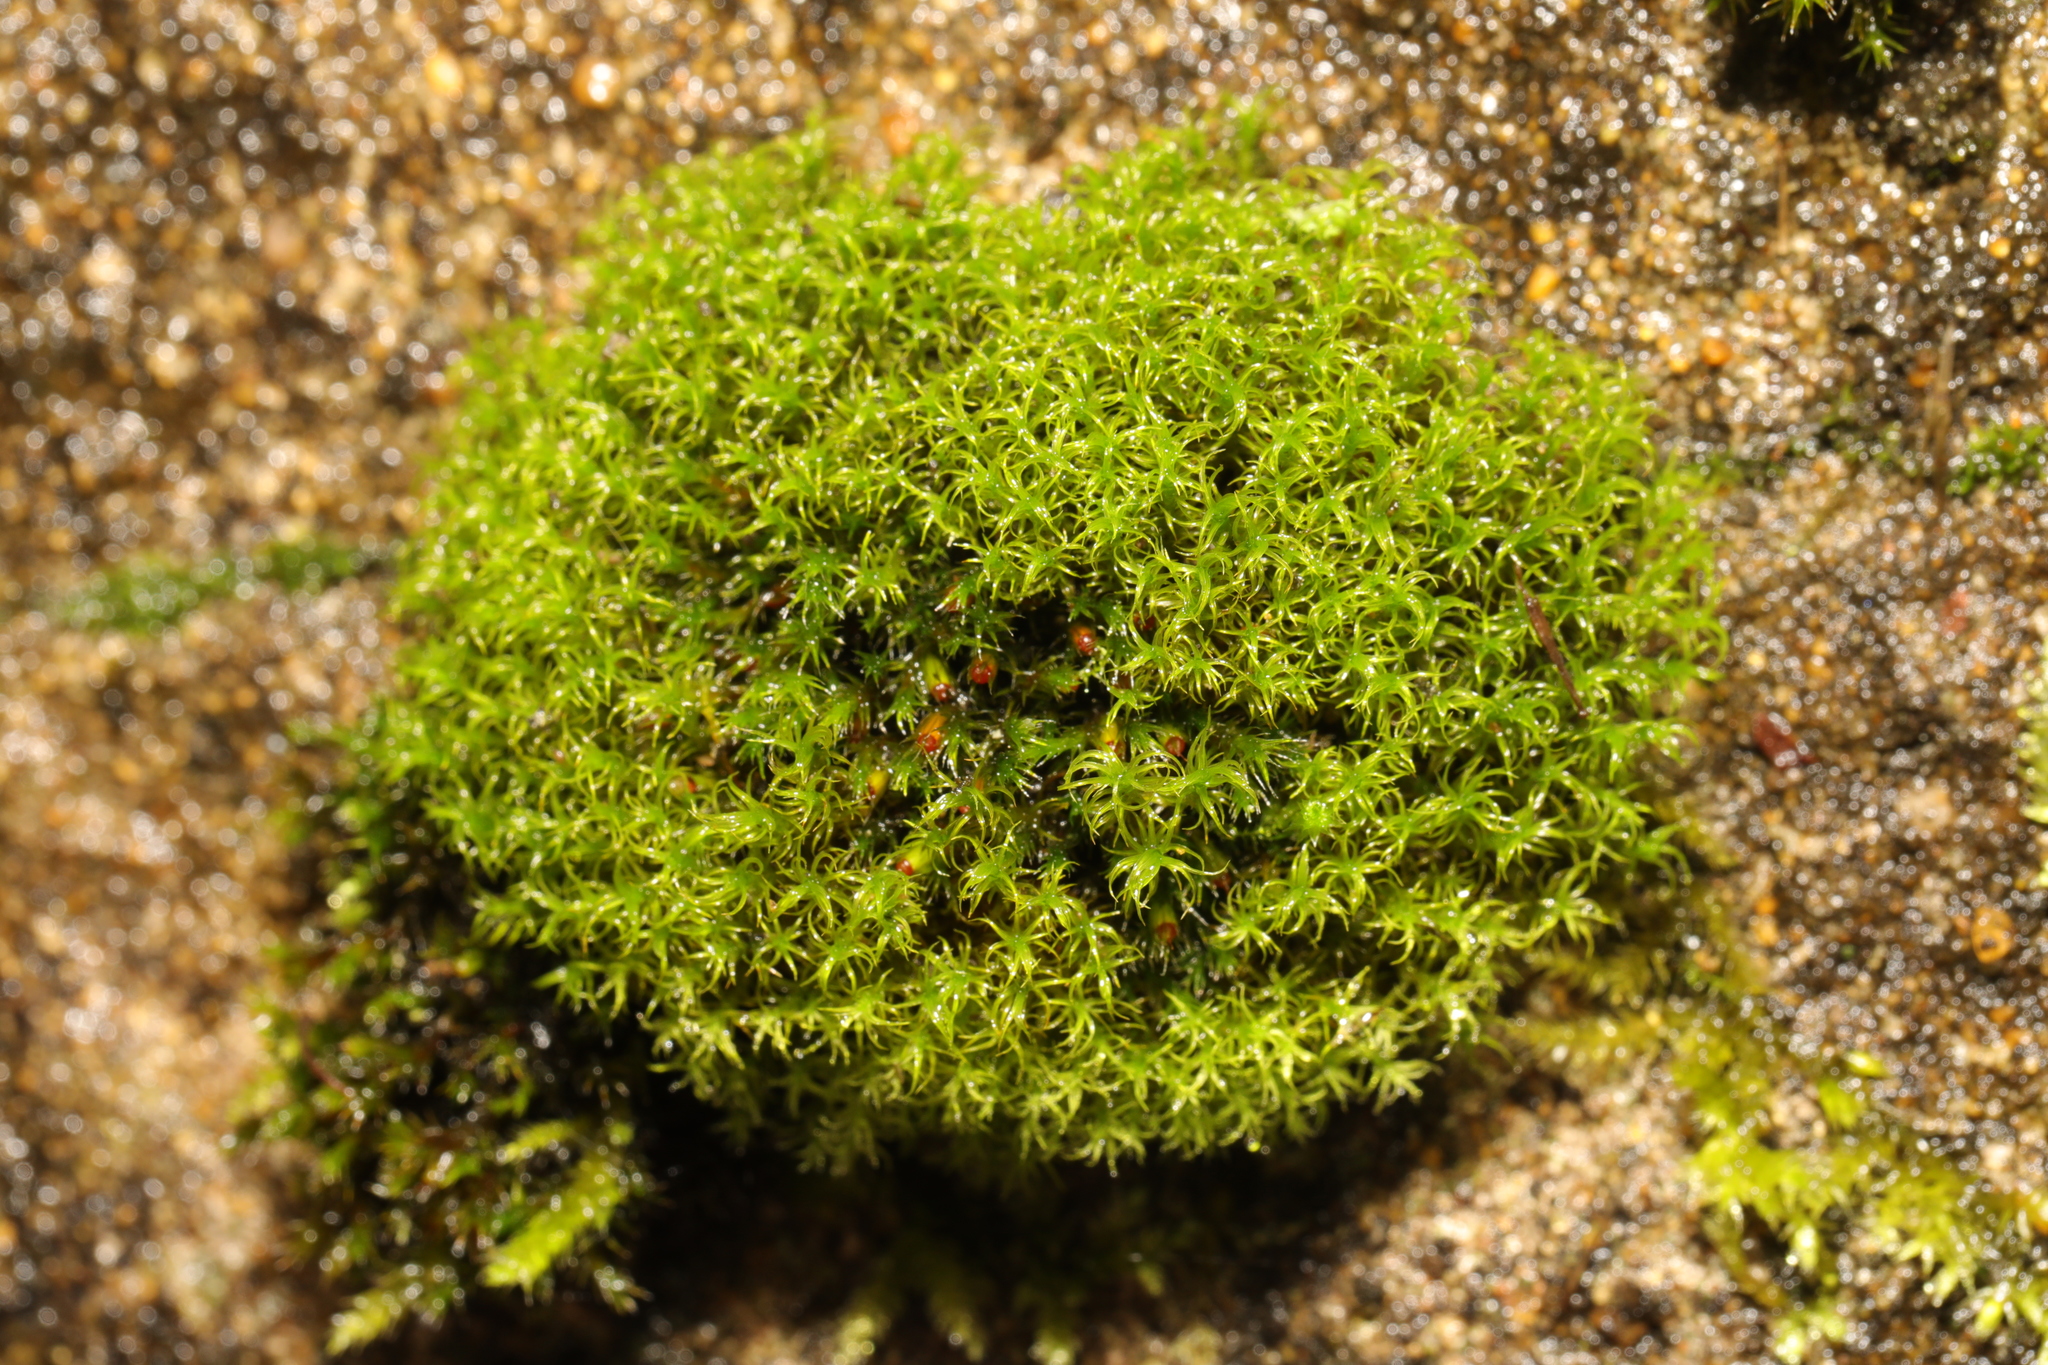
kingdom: Plantae
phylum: Bryophyta
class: Bryopsida
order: Grimmiales
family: Grimmiaceae
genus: Schistidium
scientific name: Schistidium crassipilum
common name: Thickpoint bloom moss
